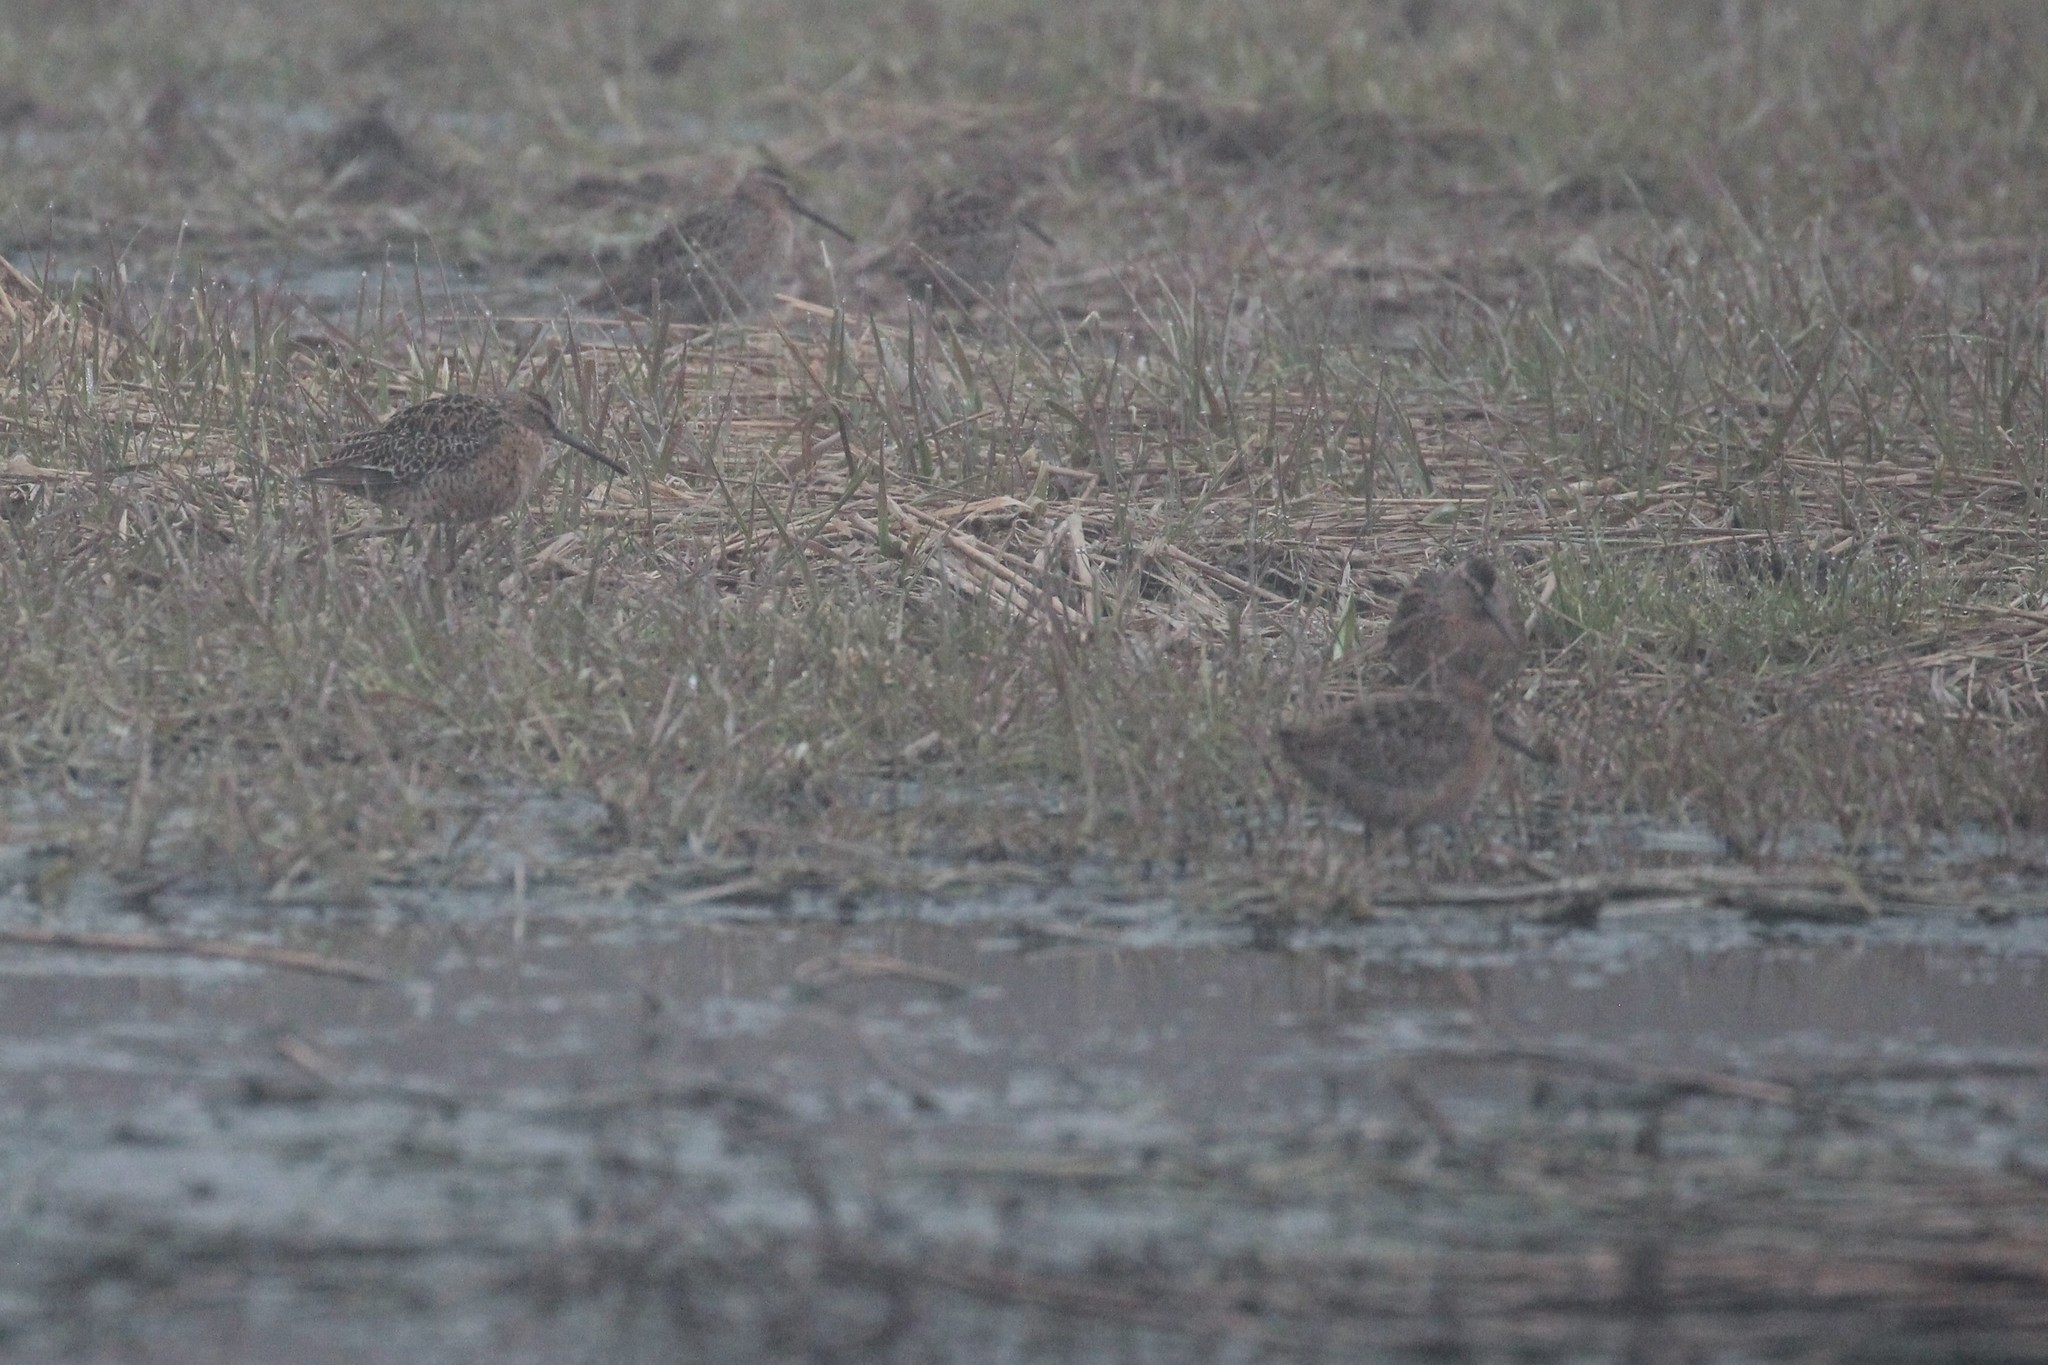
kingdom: Animalia
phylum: Chordata
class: Aves
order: Charadriiformes
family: Scolopacidae
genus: Limnodromus
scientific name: Limnodromus griseus
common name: Short-billed dowitcher
